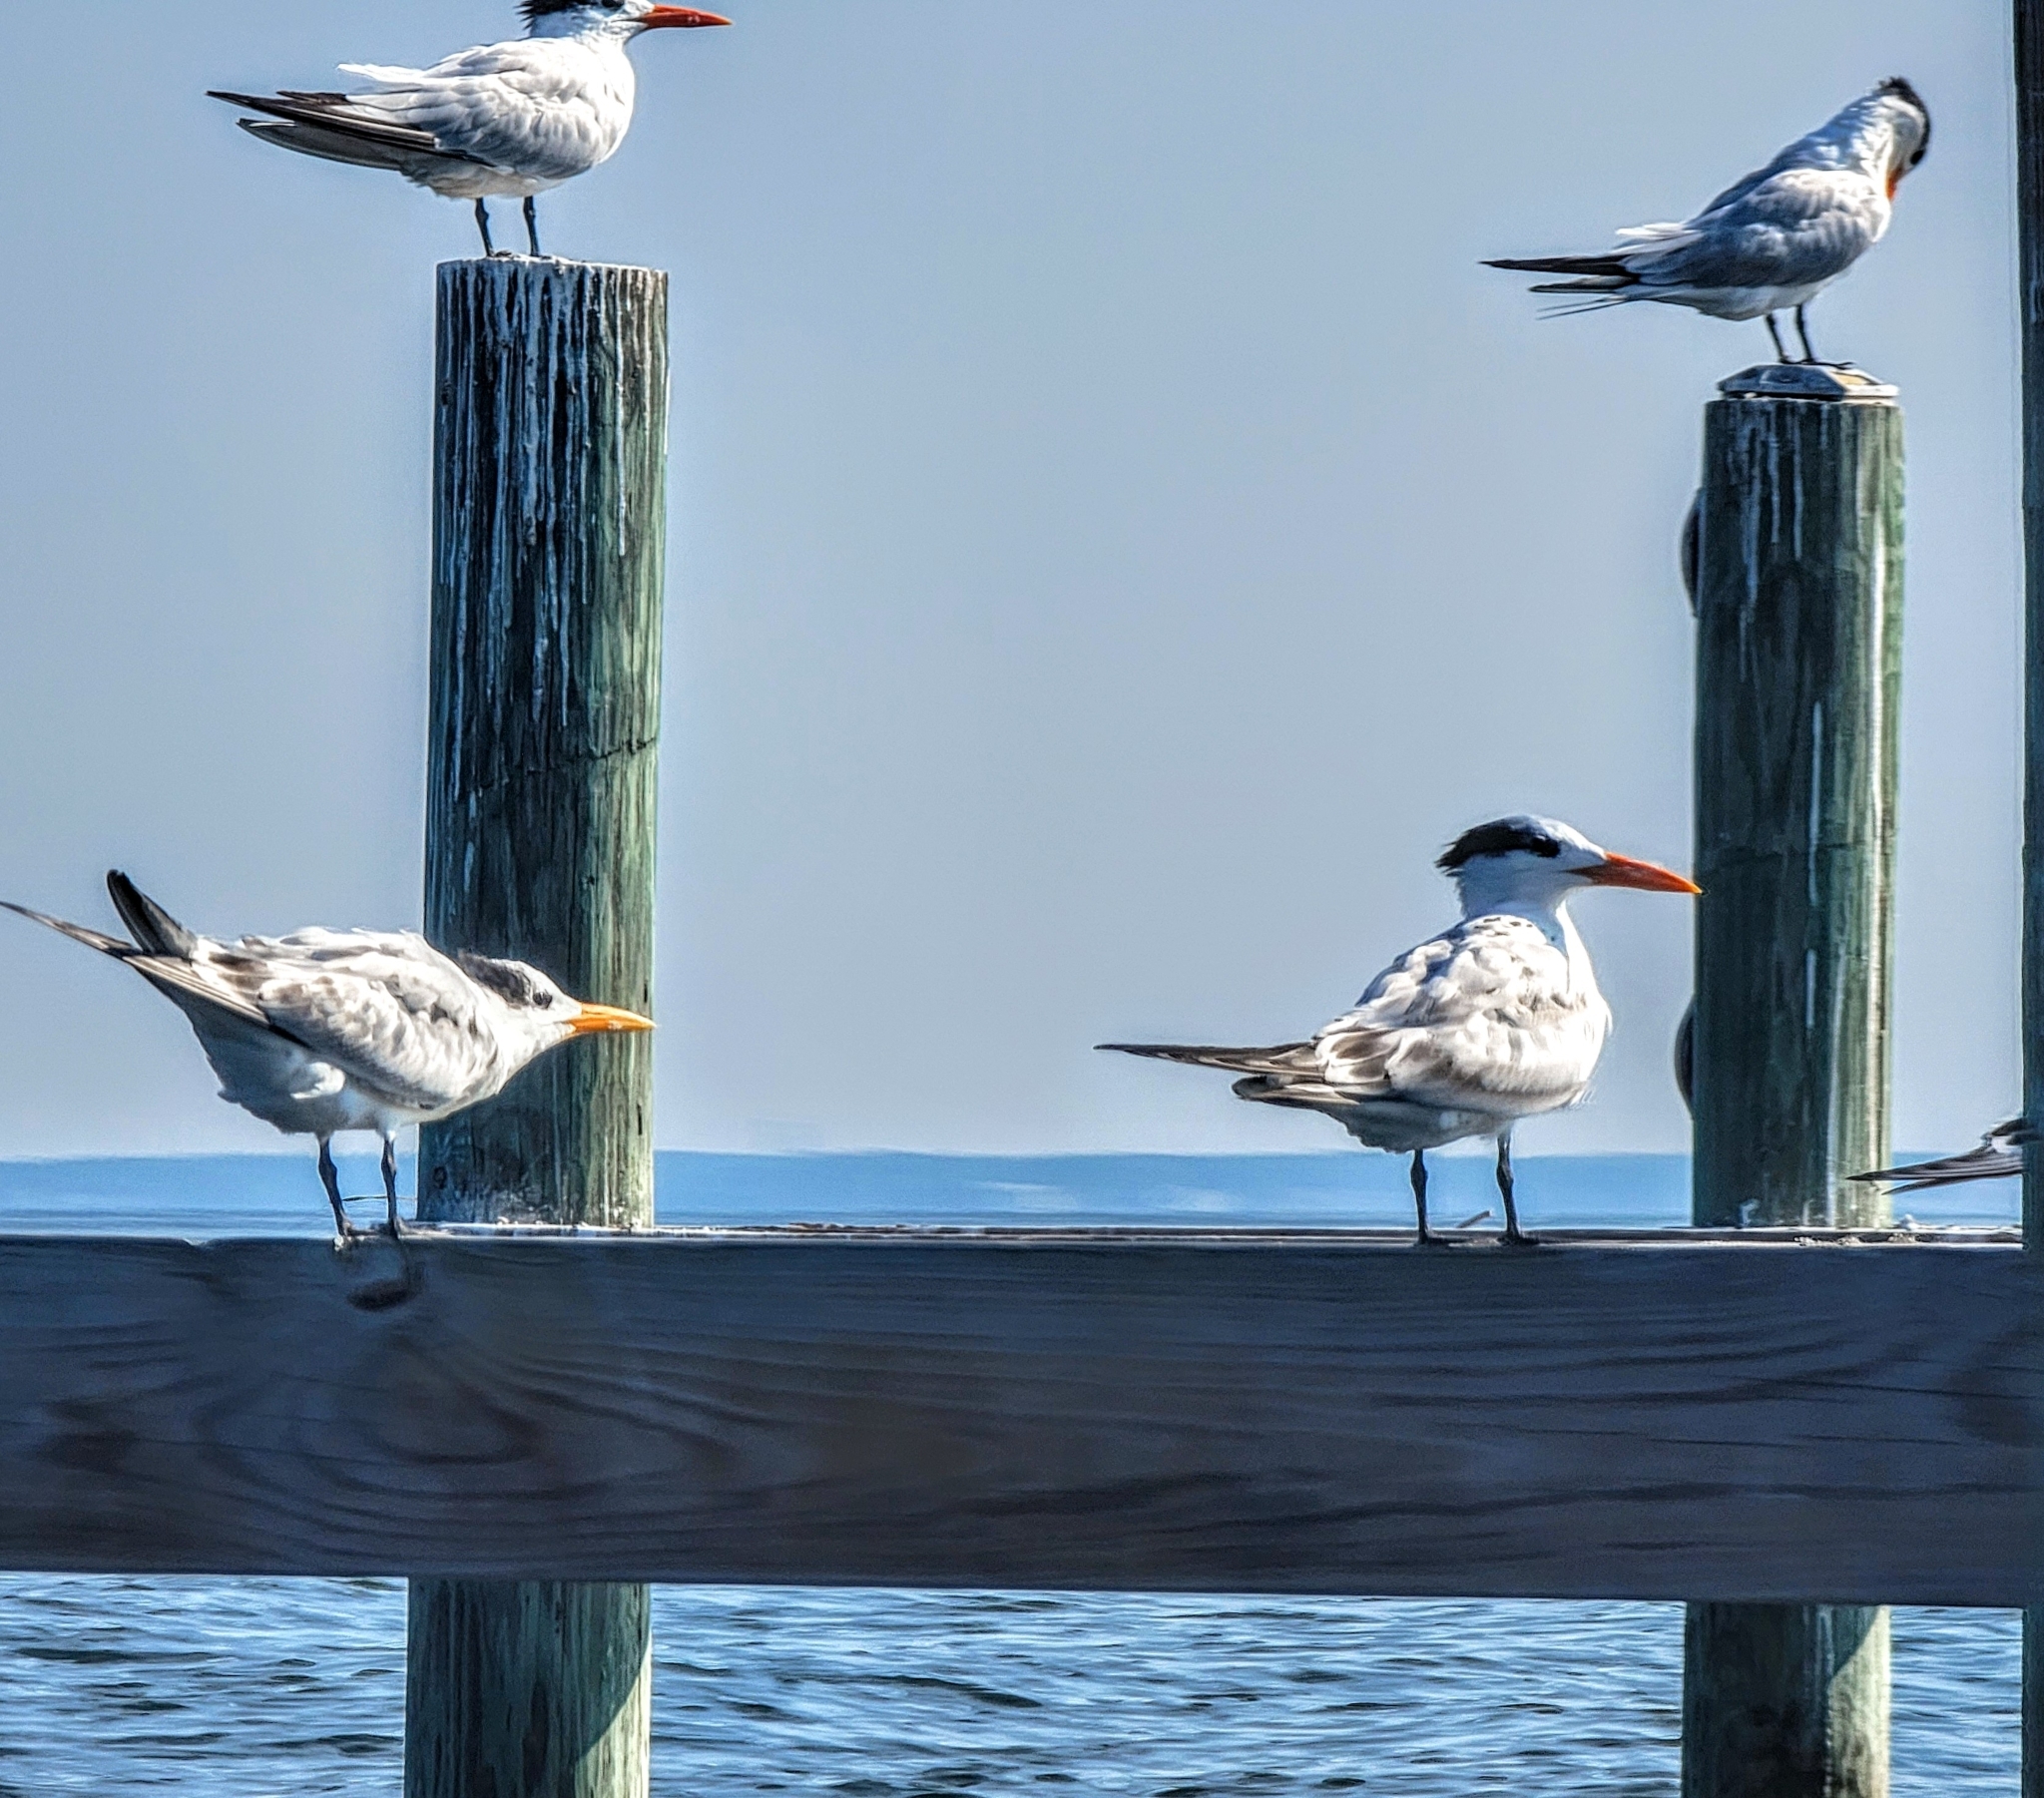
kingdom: Animalia
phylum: Chordata
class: Aves
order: Charadriiformes
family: Laridae
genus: Thalasseus
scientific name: Thalasseus maximus
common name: Royal tern
